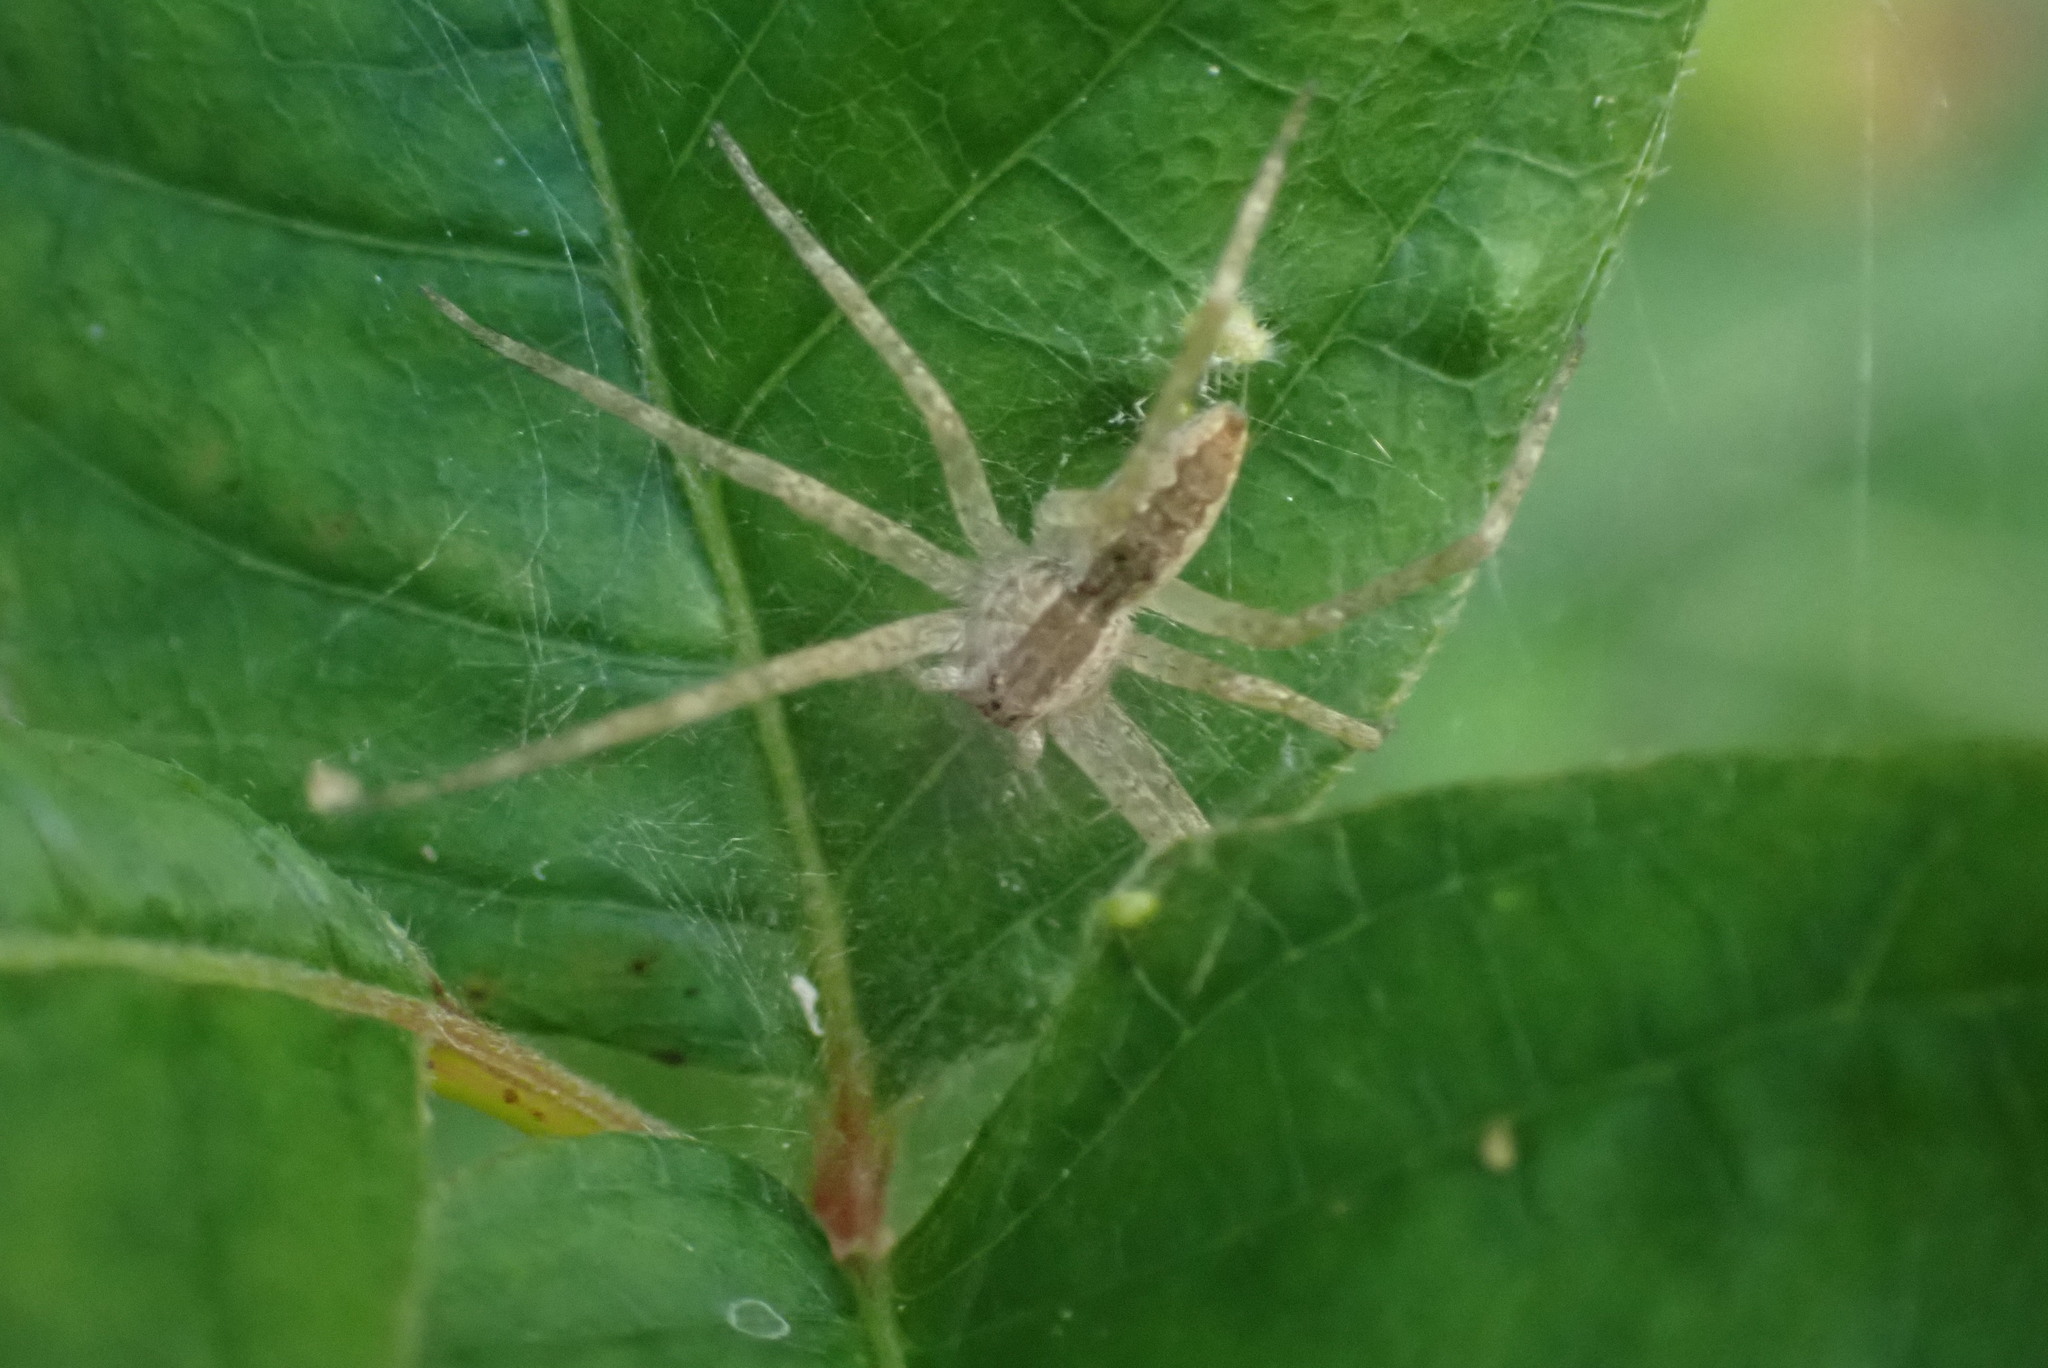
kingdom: Animalia
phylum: Arthropoda
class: Arachnida
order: Araneae
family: Pisauridae
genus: Pisaurina
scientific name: Pisaurina mira
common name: American nursery web spider
